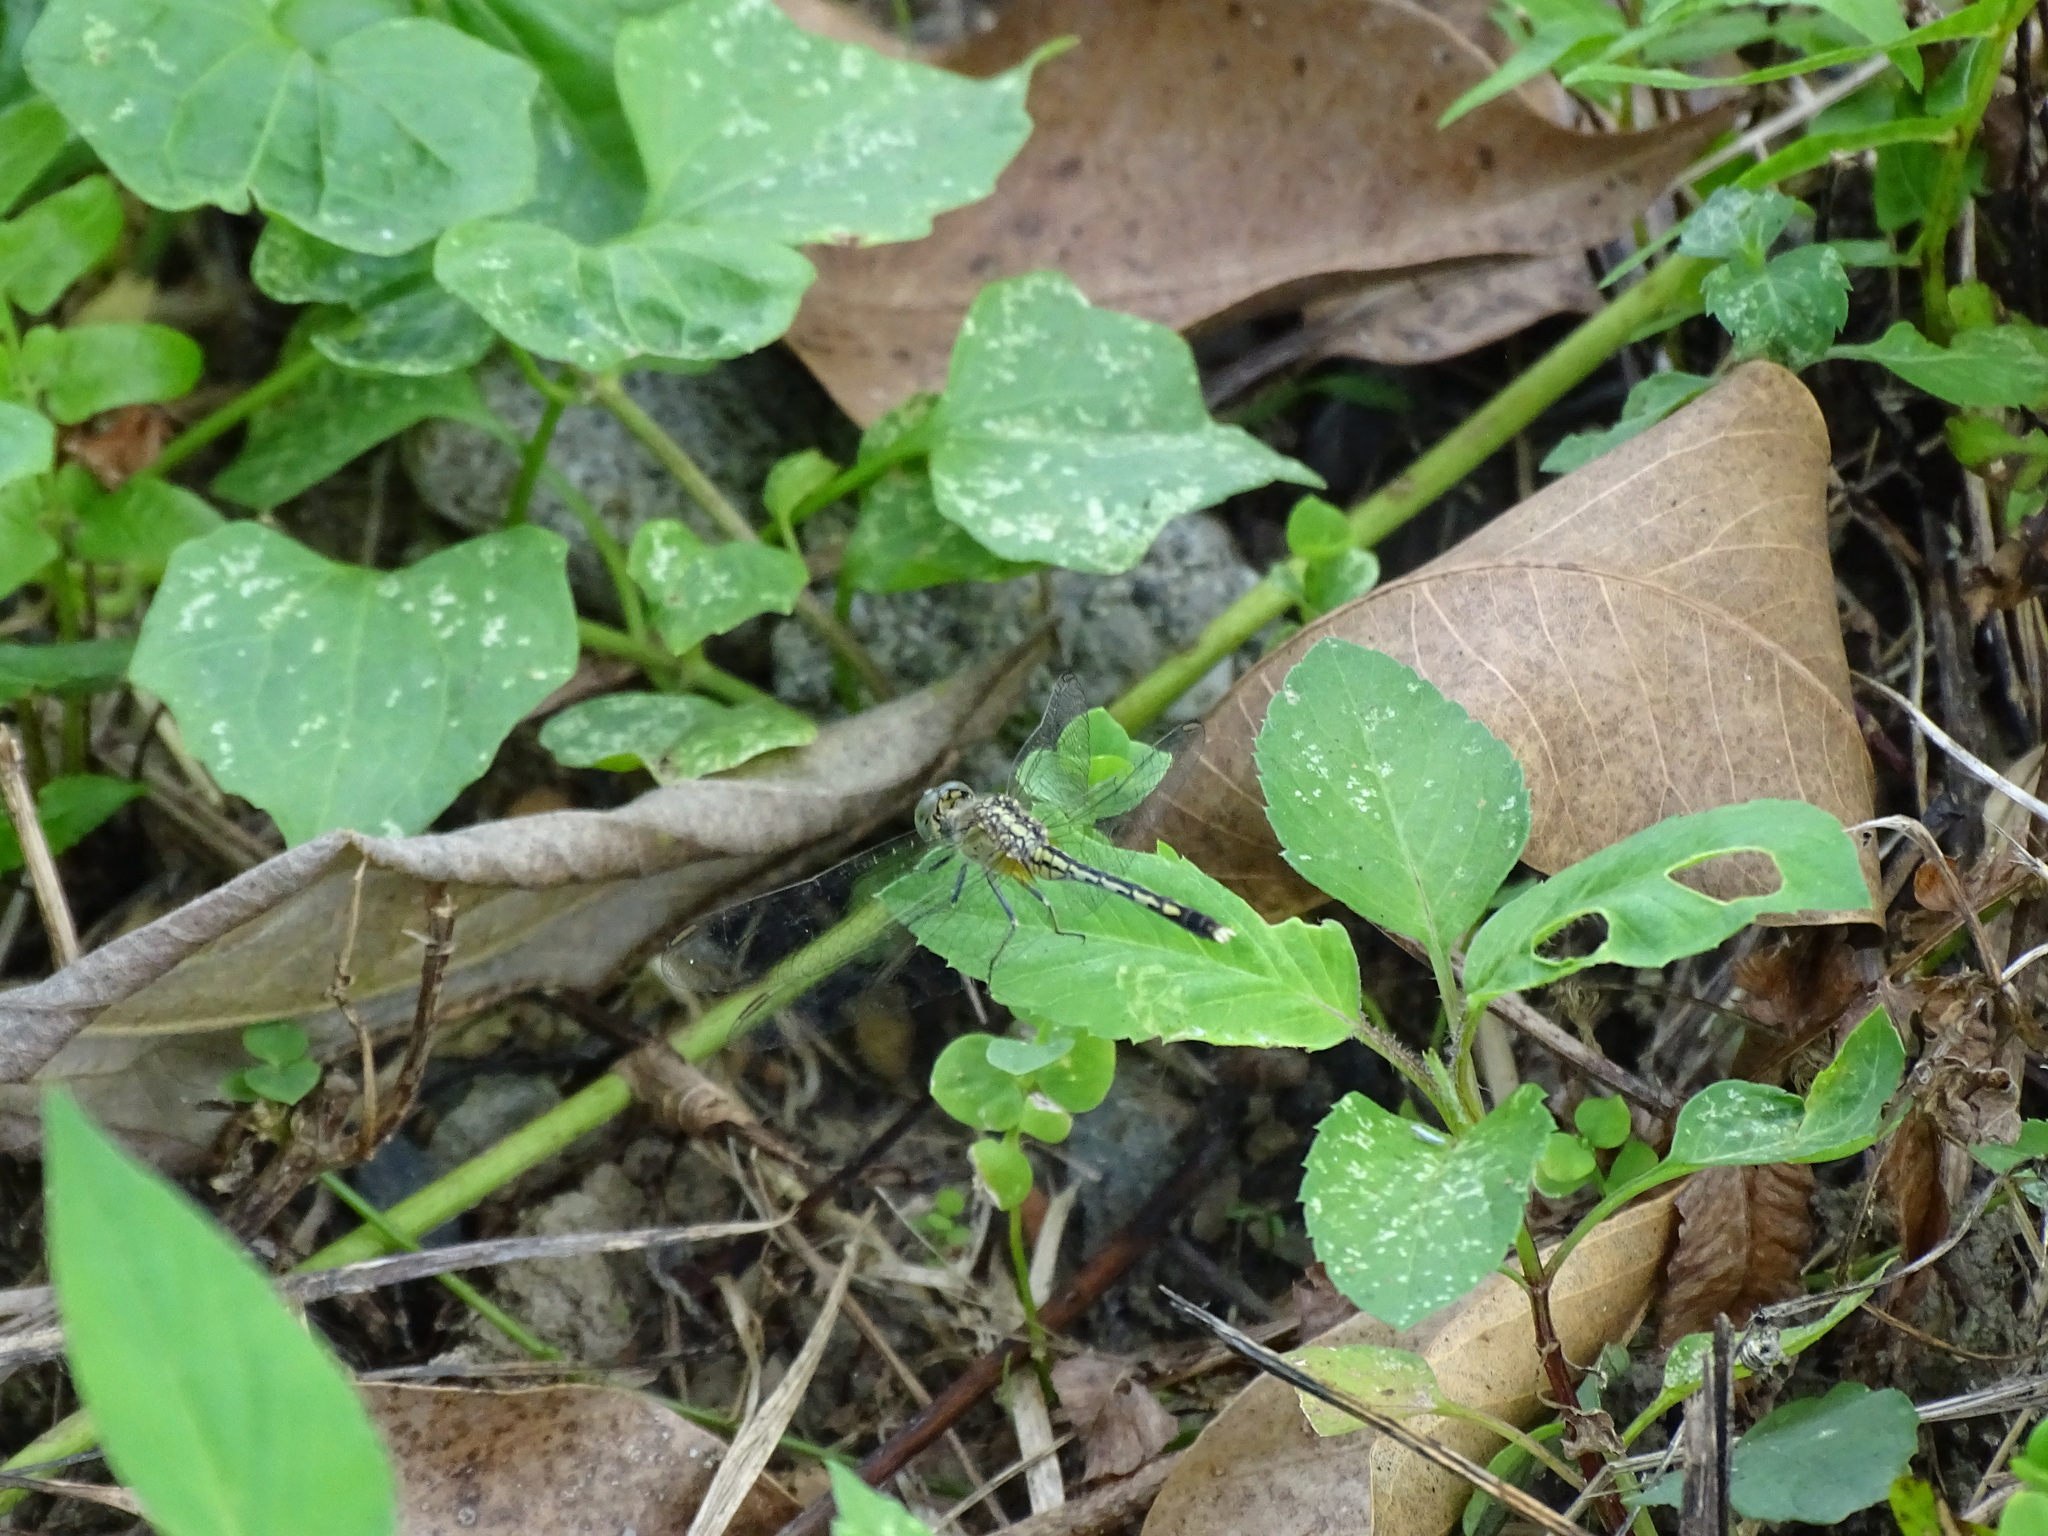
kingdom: Animalia
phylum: Arthropoda
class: Insecta
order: Odonata
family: Libellulidae
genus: Diplacodes
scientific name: Diplacodes trivialis
